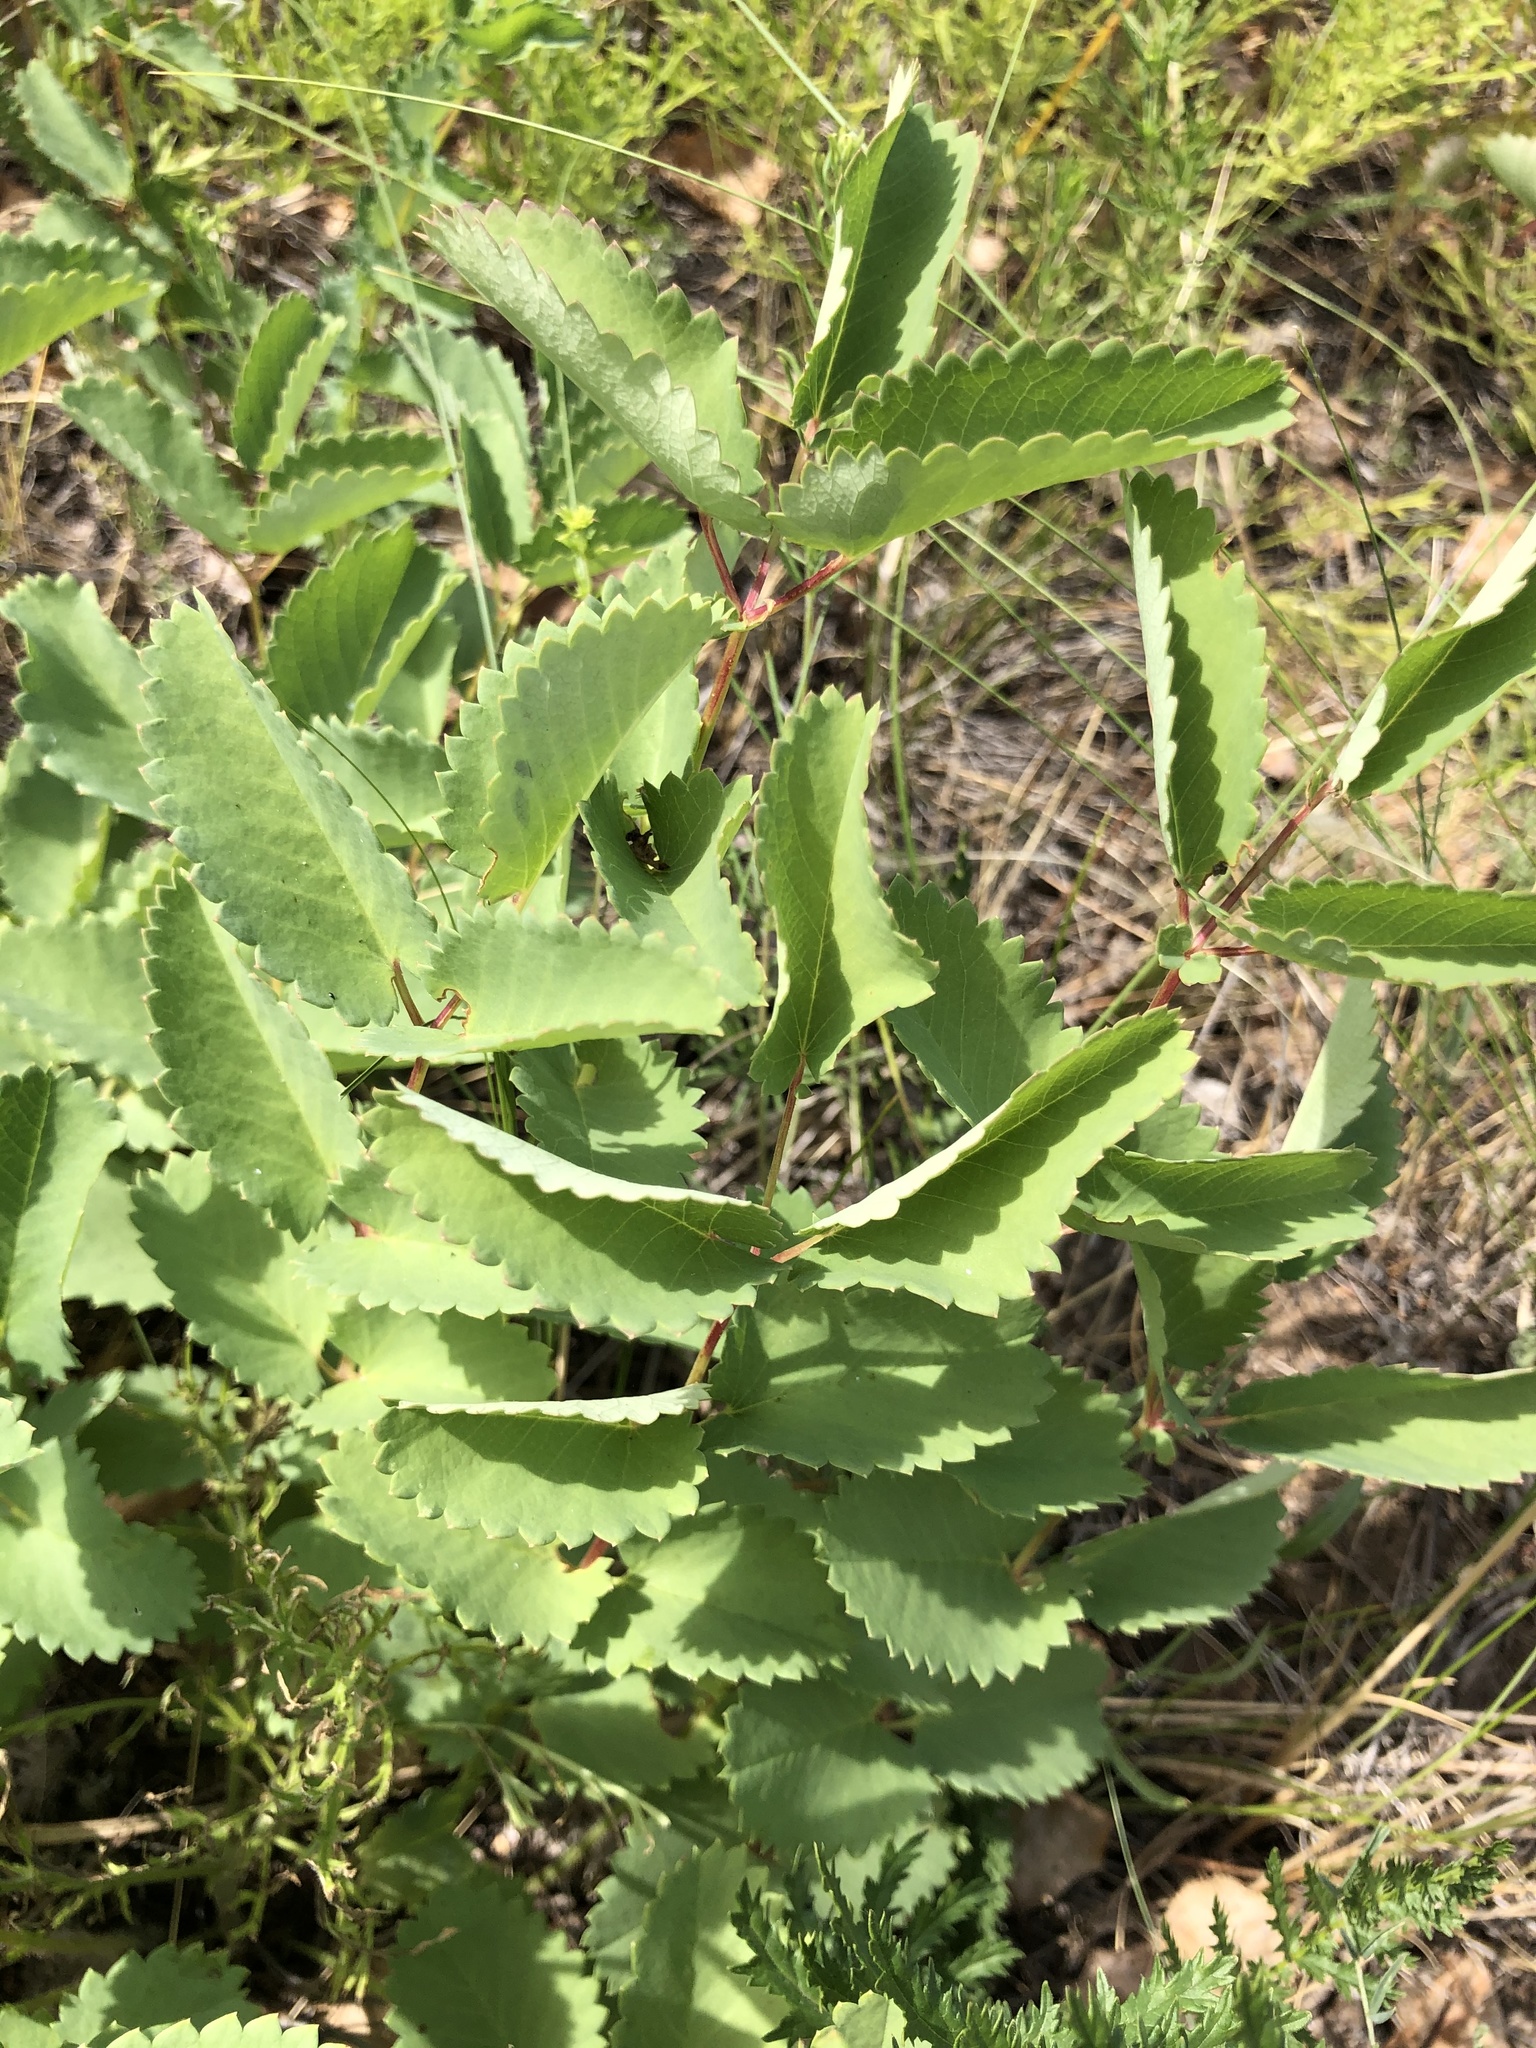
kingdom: Plantae
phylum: Tracheophyta
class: Magnoliopsida
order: Rosales
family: Rosaceae
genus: Sanguisorba
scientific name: Sanguisorba officinalis
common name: Great burnet
